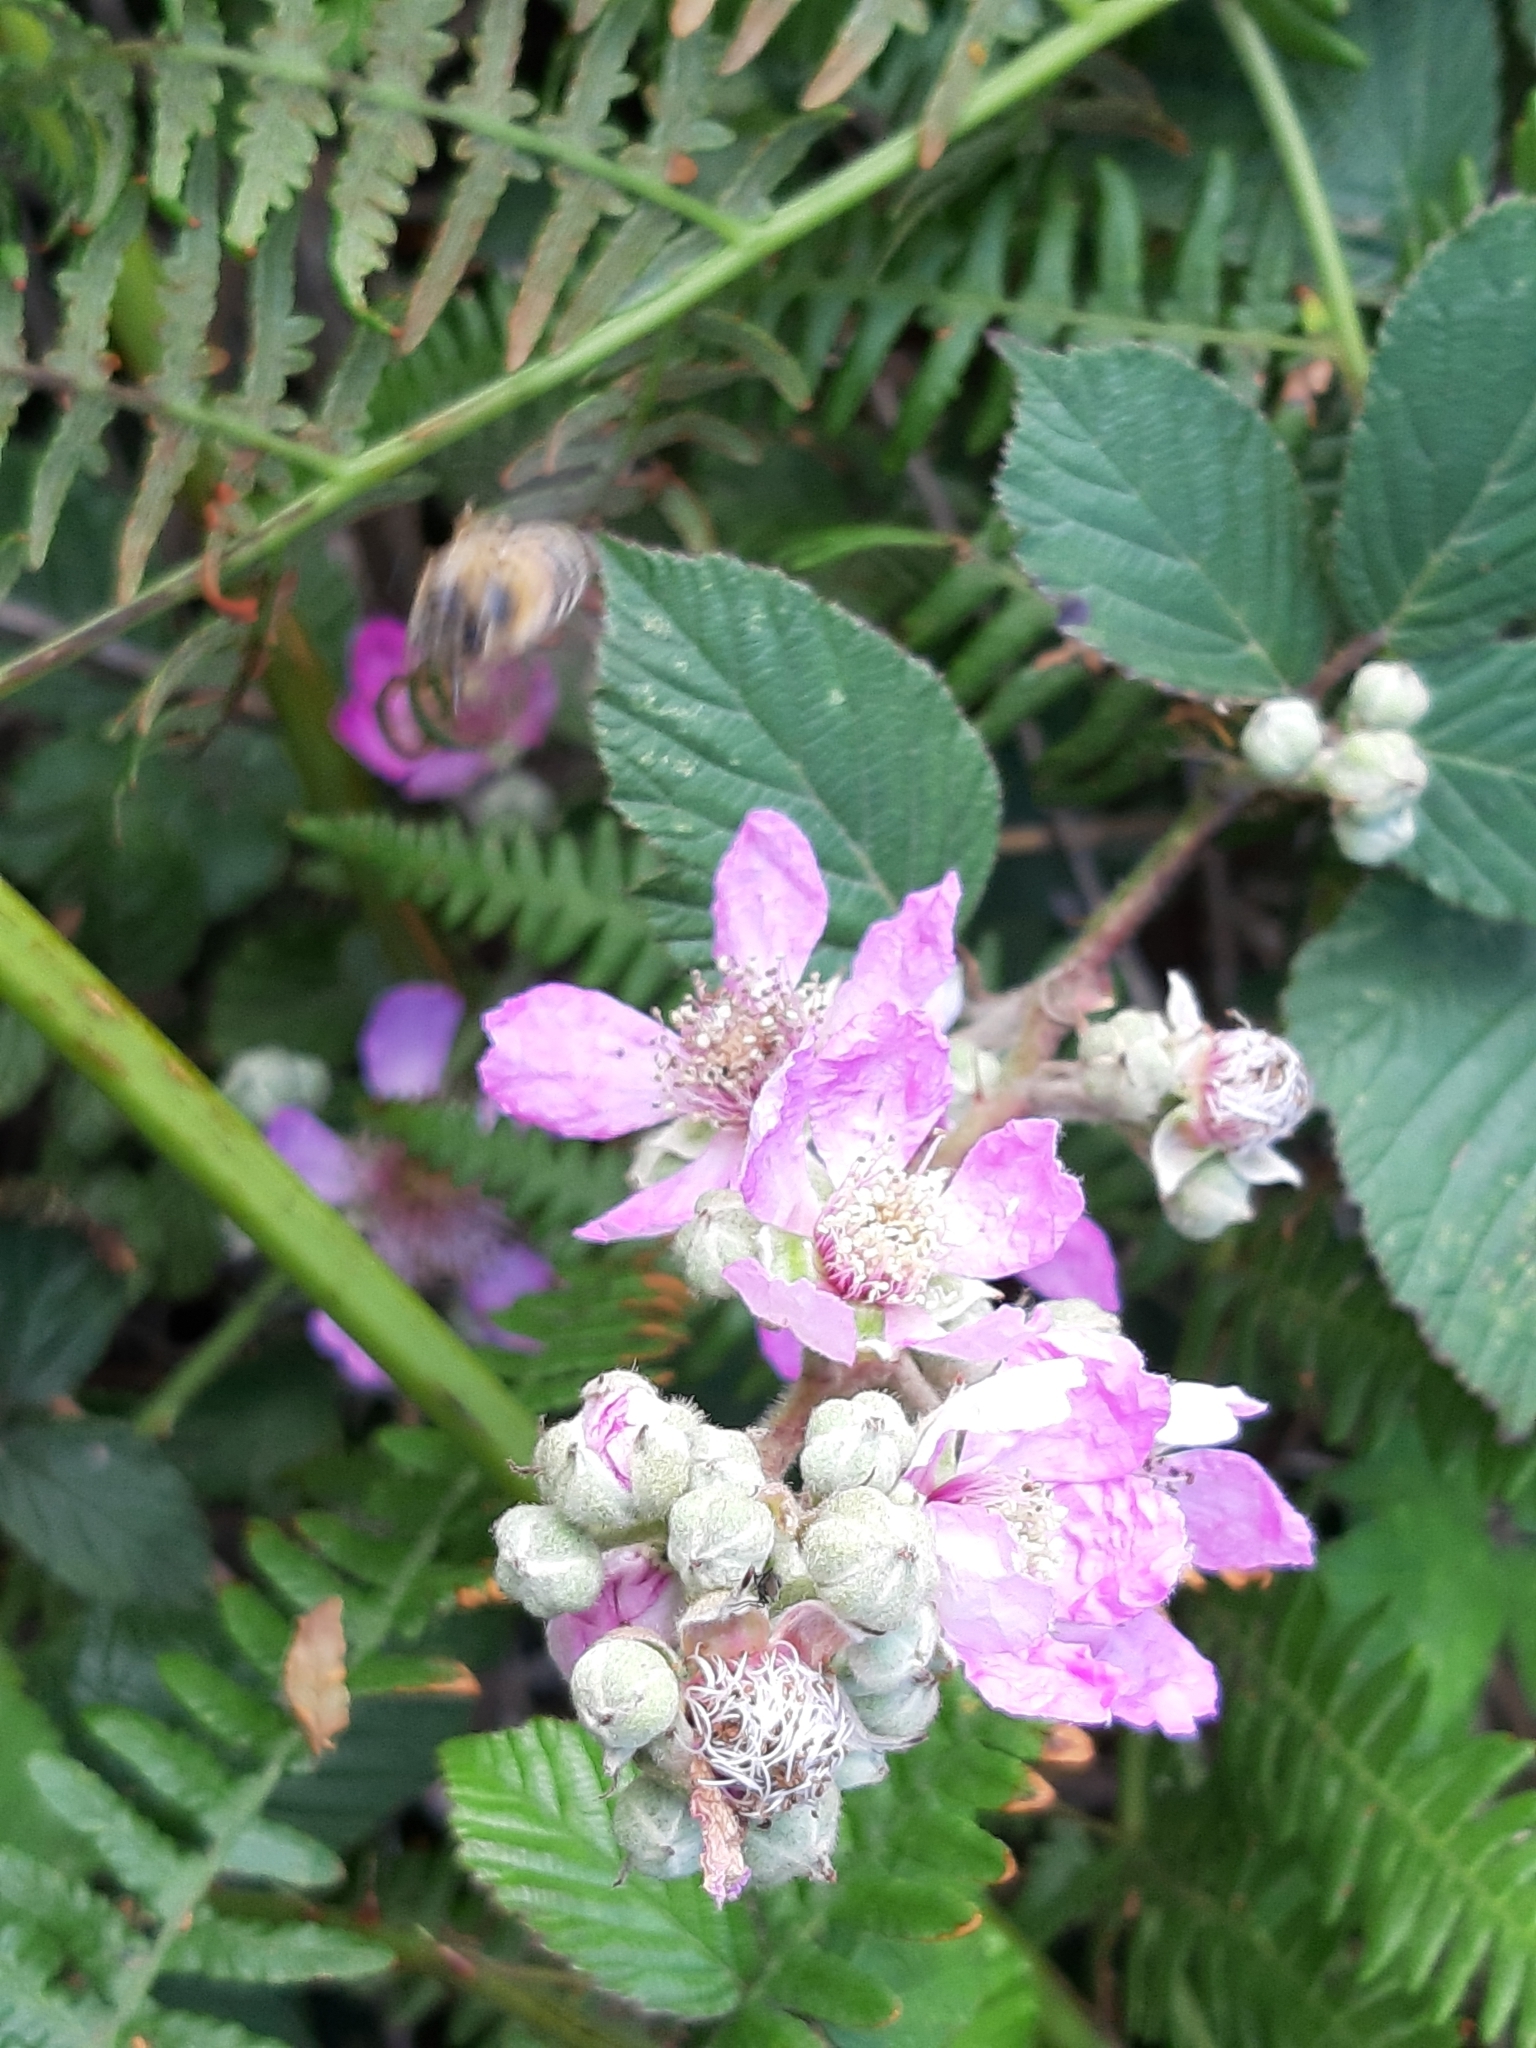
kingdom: Plantae
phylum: Tracheophyta
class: Magnoliopsida
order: Rosales
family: Rosaceae
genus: Rubus
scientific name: Rubus ulmifolius
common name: Elmleaf blackberry
